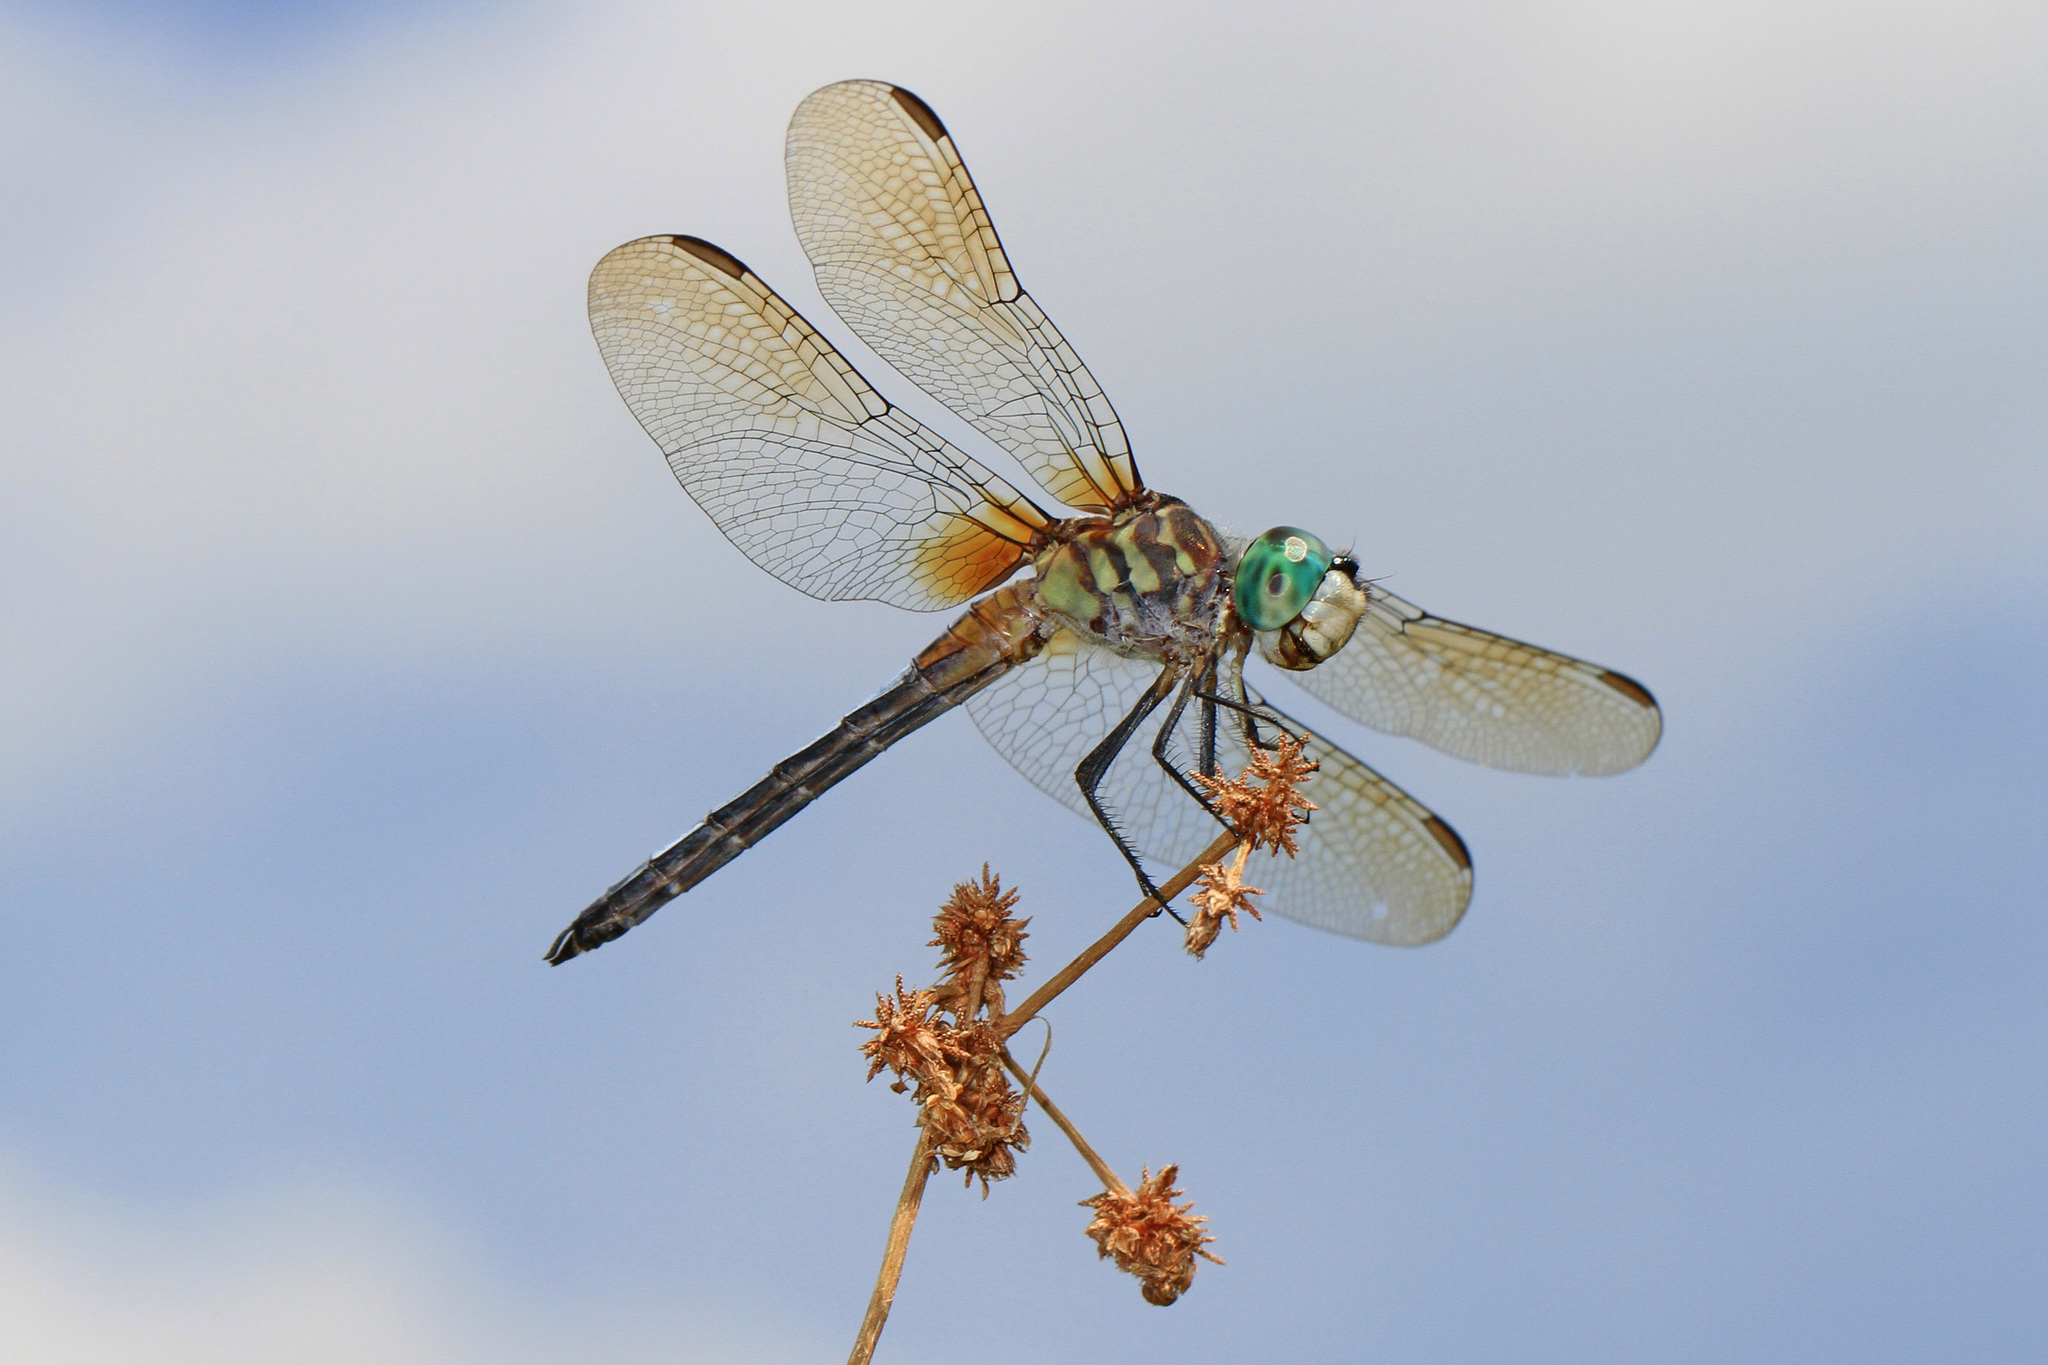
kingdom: Animalia
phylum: Arthropoda
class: Insecta
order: Odonata
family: Libellulidae
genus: Pachydiplax
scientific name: Pachydiplax longipennis
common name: Blue dasher
